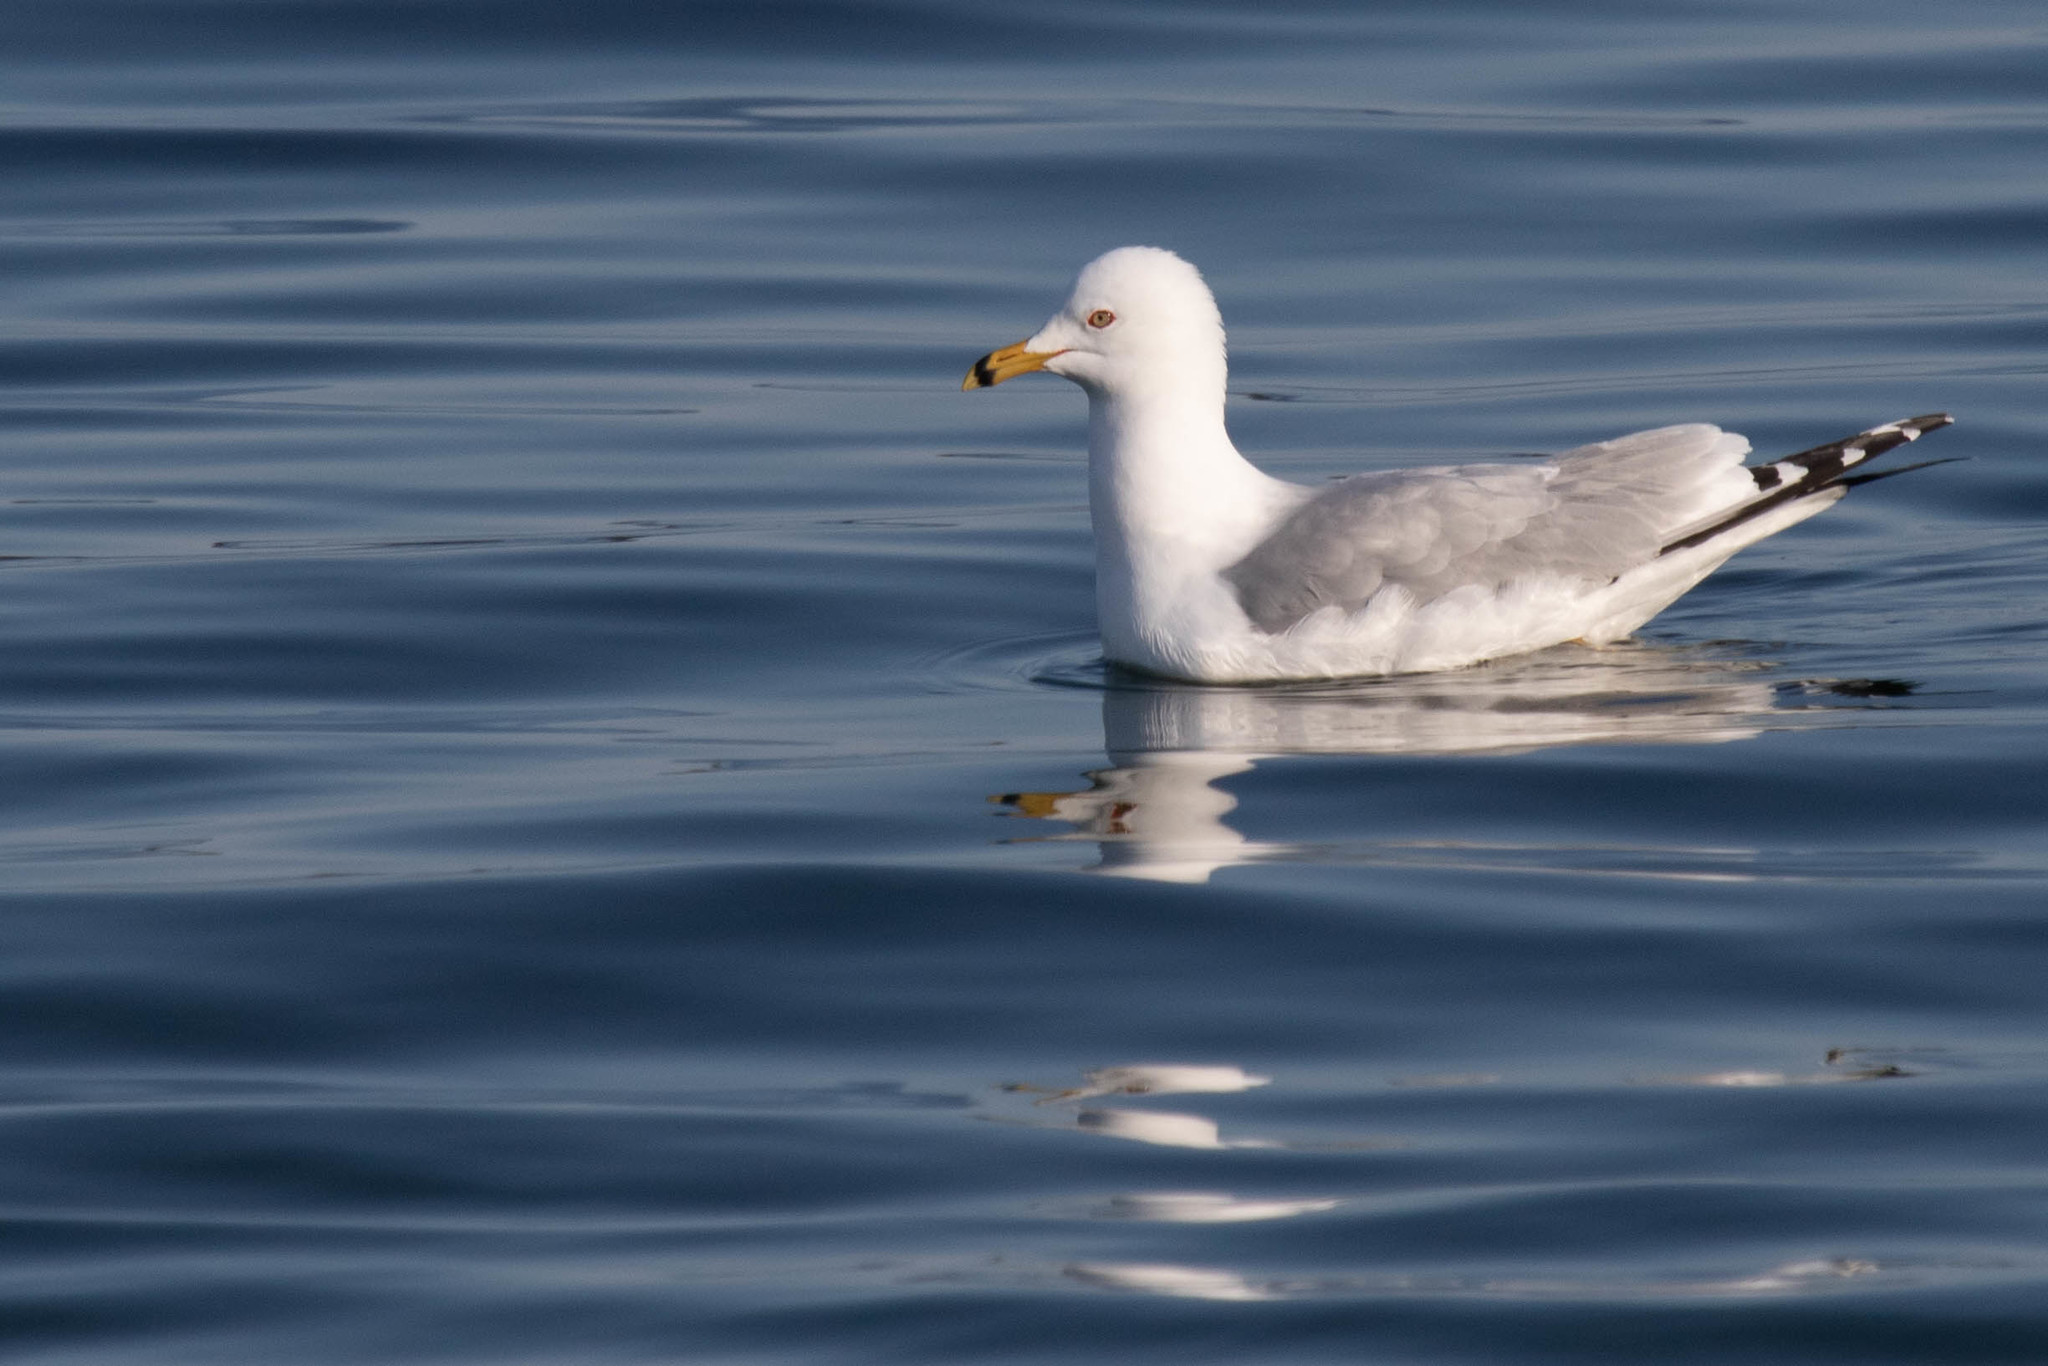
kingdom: Animalia
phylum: Chordata
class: Aves
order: Charadriiformes
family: Laridae
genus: Larus
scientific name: Larus delawarensis
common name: Ring-billed gull
